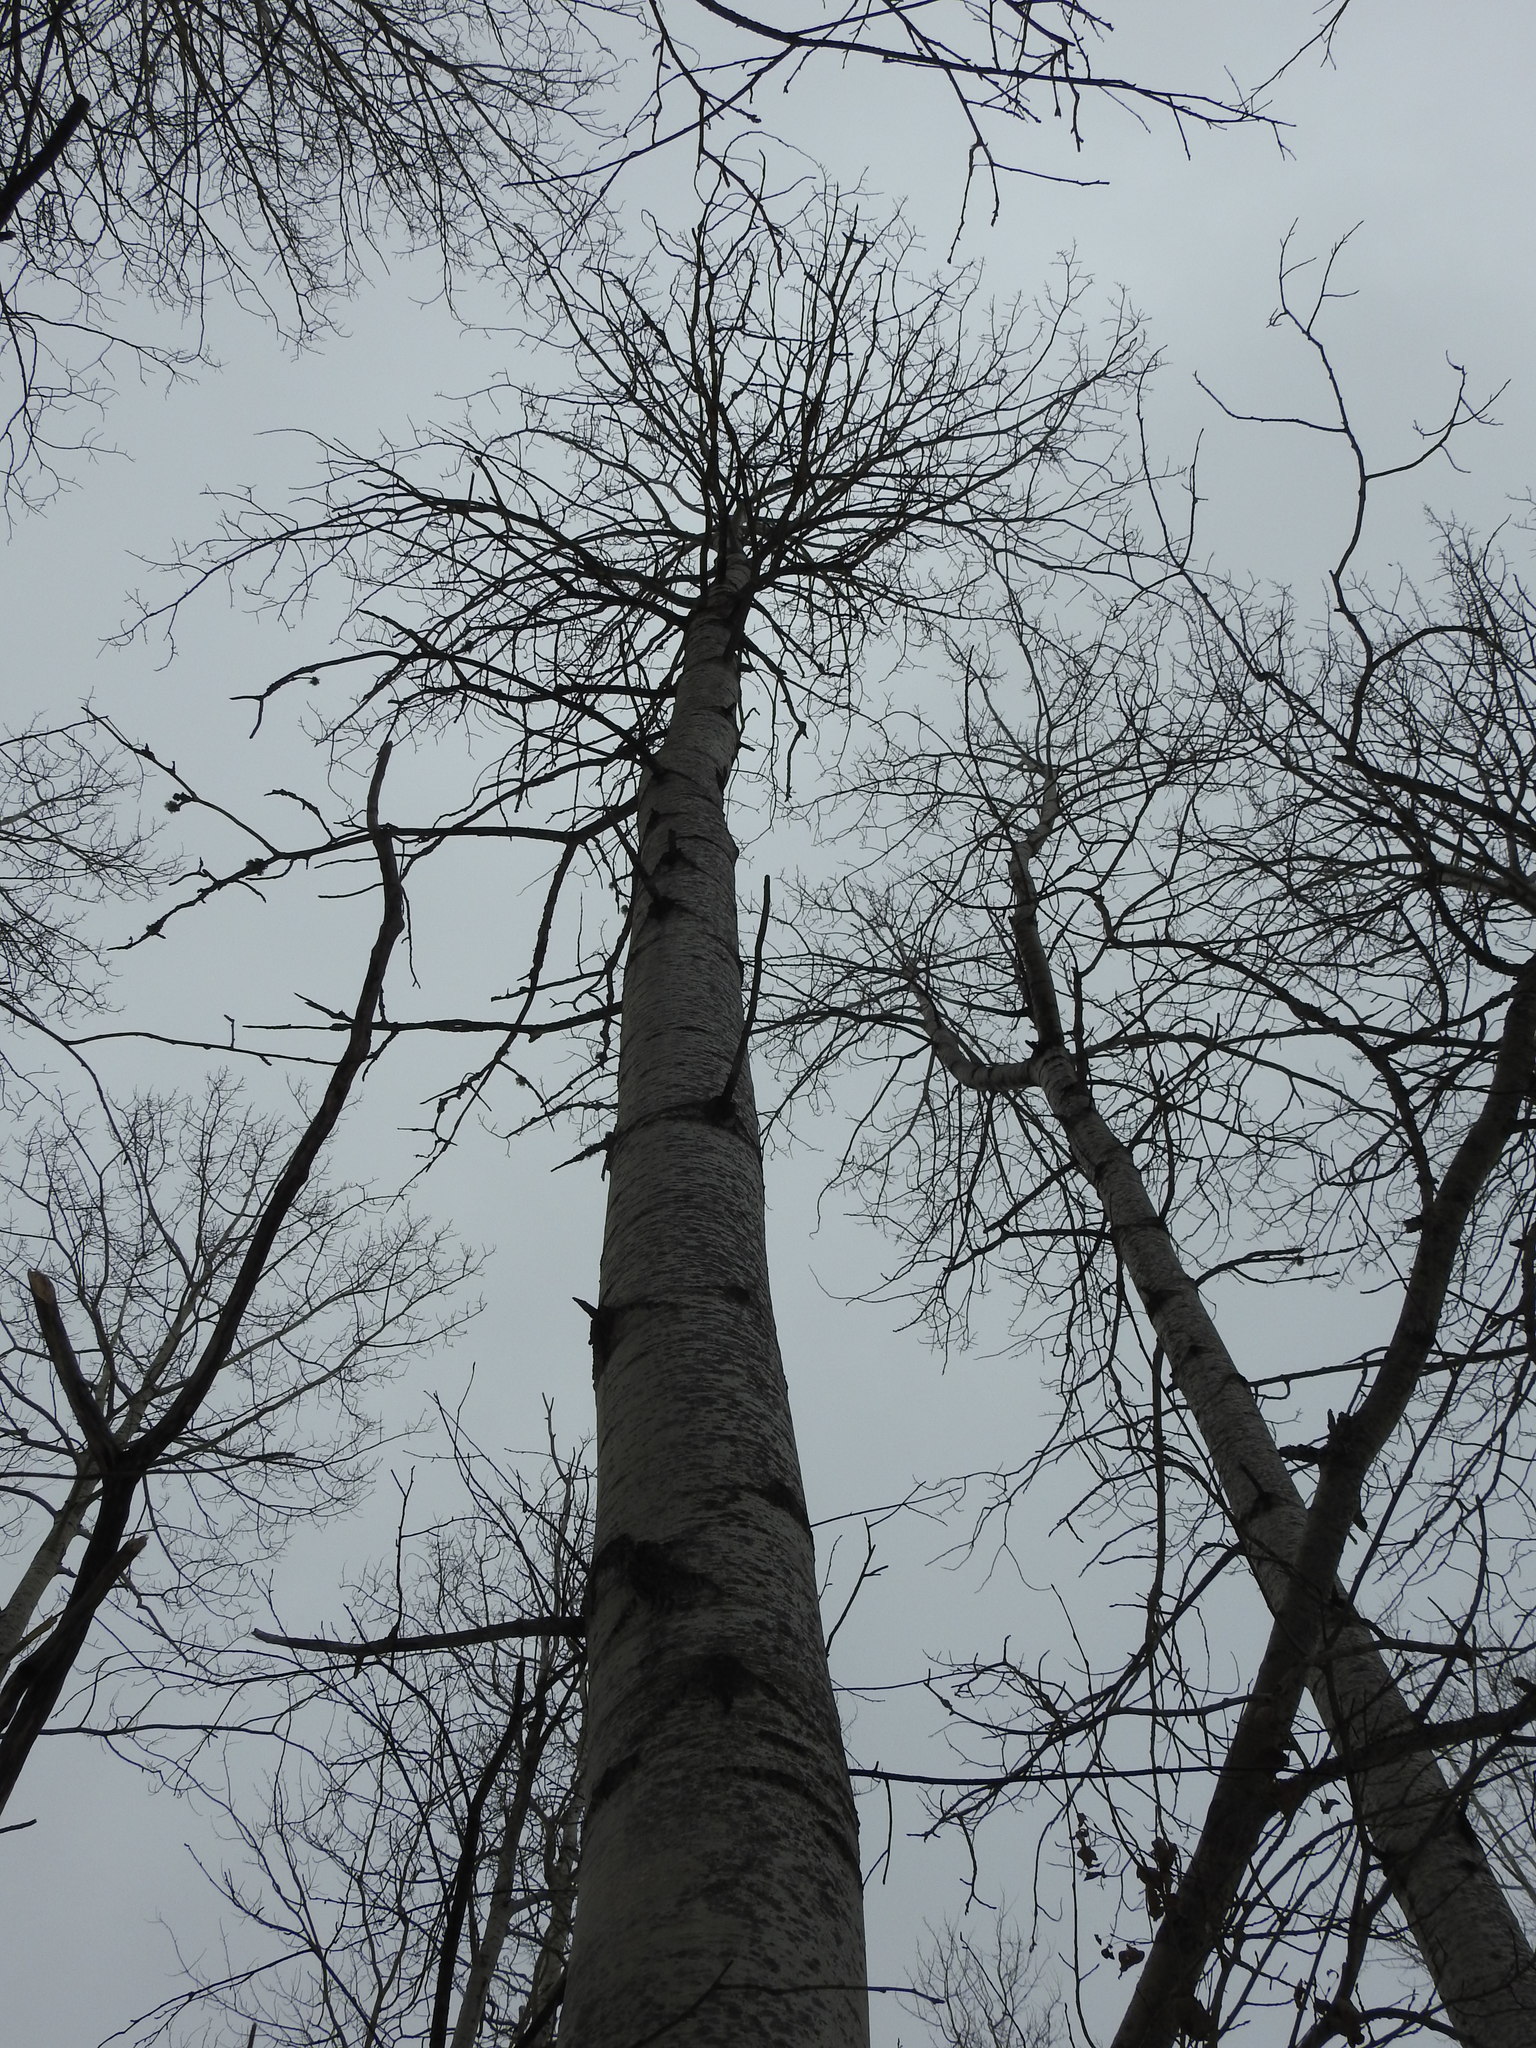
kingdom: Plantae
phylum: Tracheophyta
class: Magnoliopsida
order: Malpighiales
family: Salicaceae
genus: Populus
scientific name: Populus tremuloides
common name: Quaking aspen
